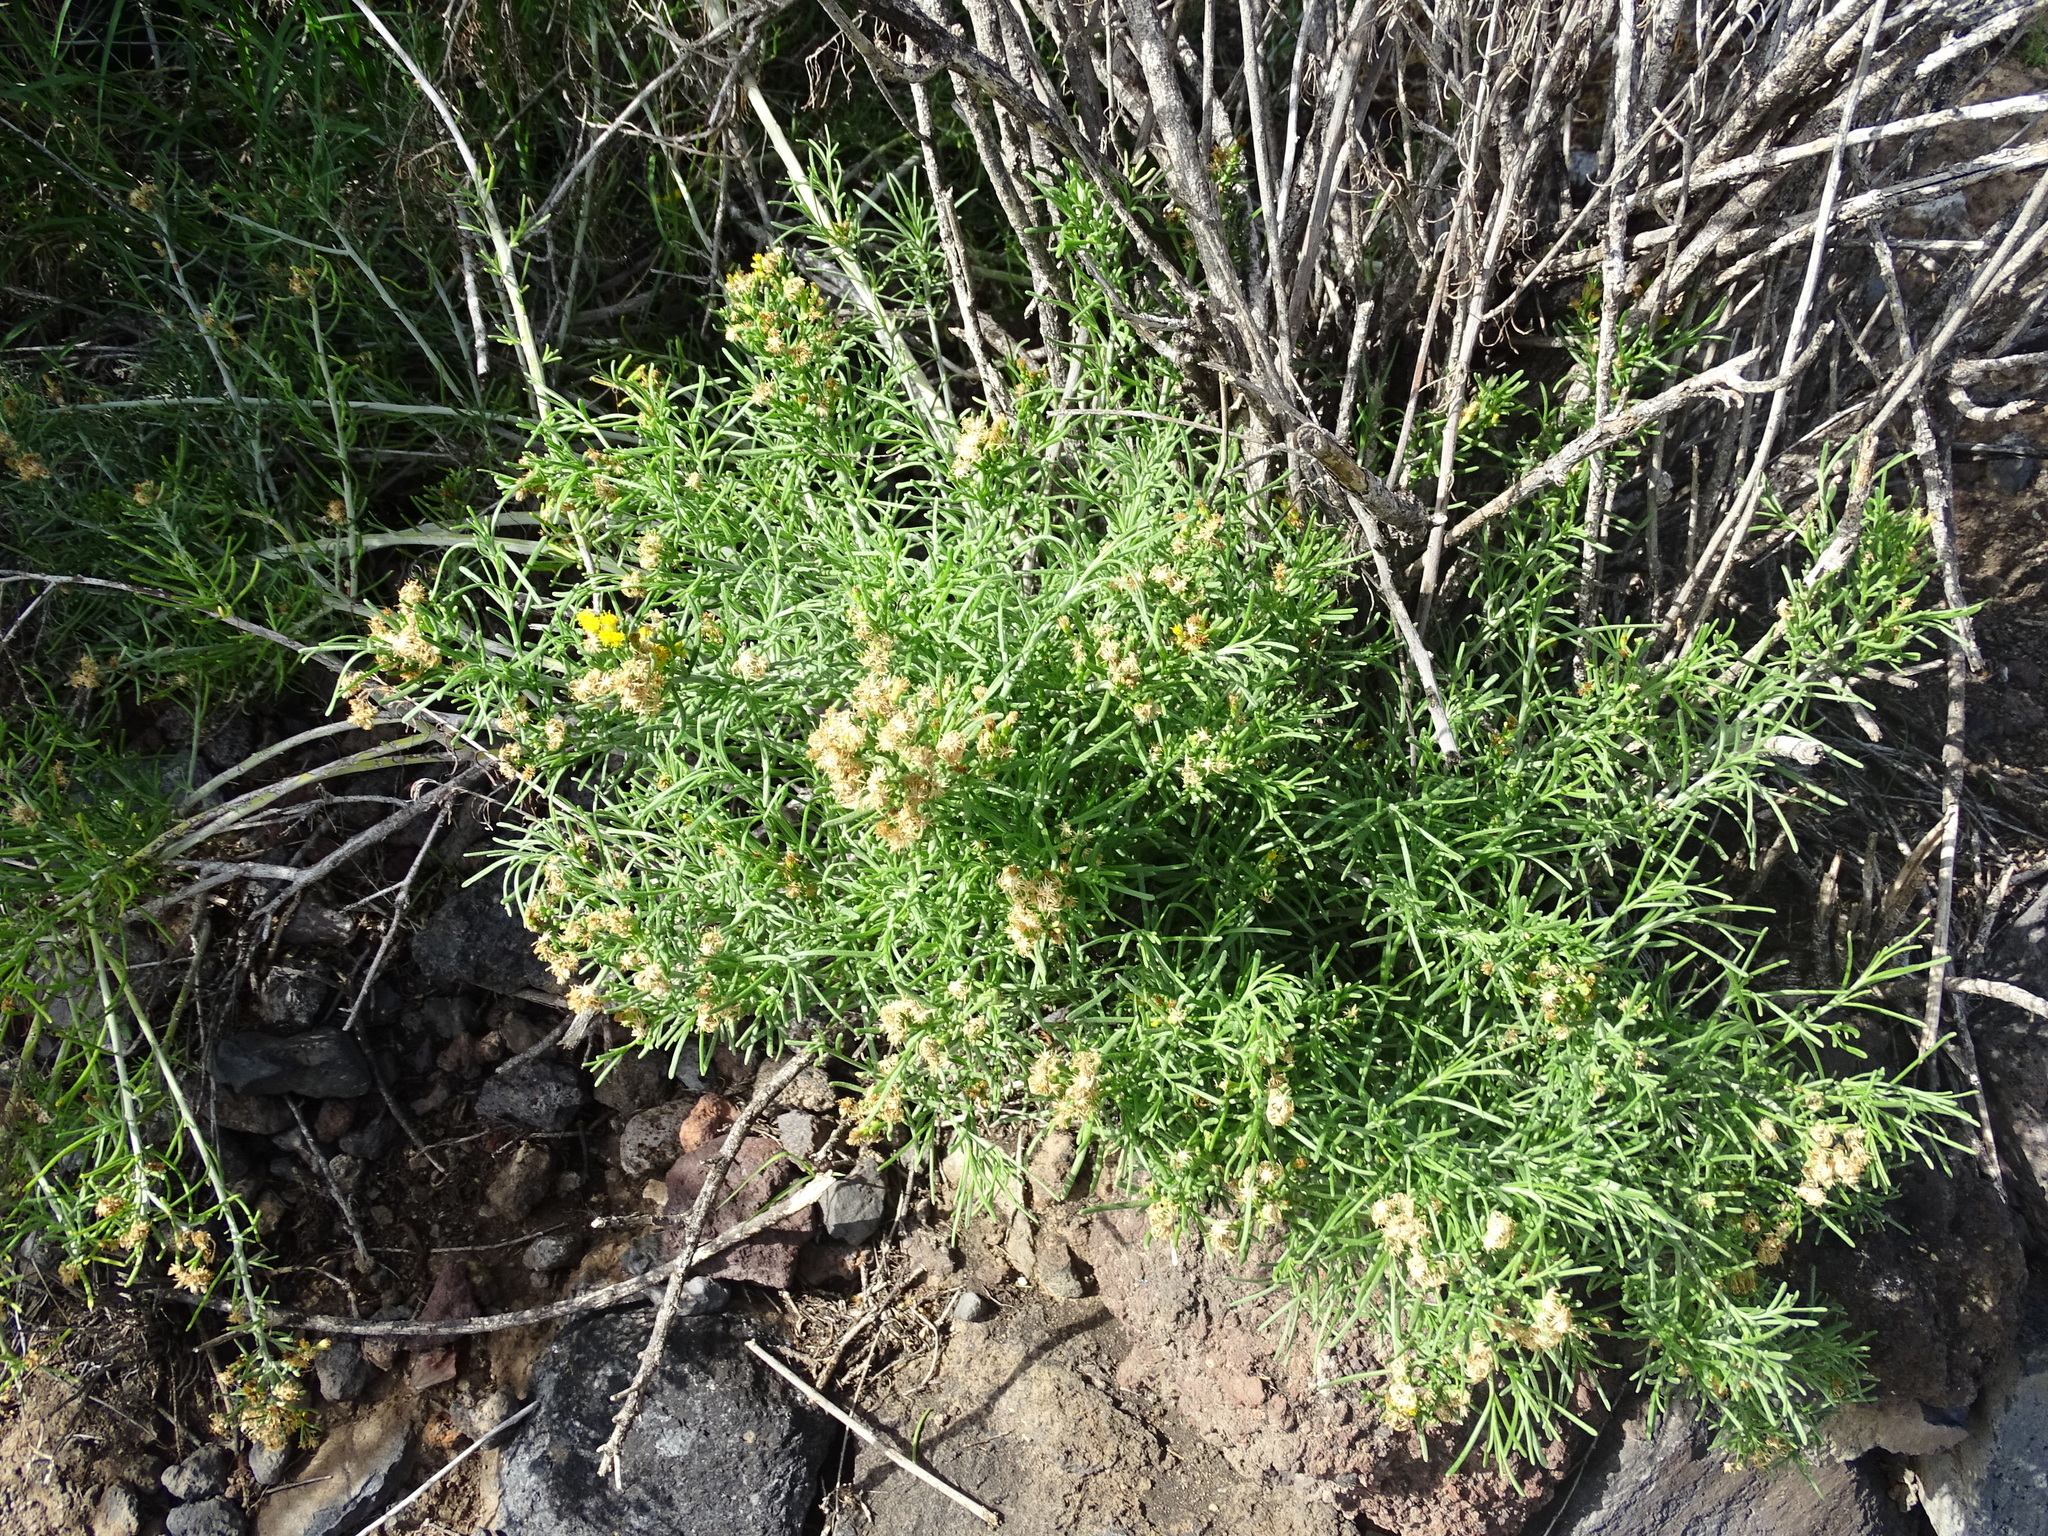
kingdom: Plantae
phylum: Tracheophyta
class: Magnoliopsida
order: Asterales
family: Asteraceae
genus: Schizogyne
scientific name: Schizogyne sericea
